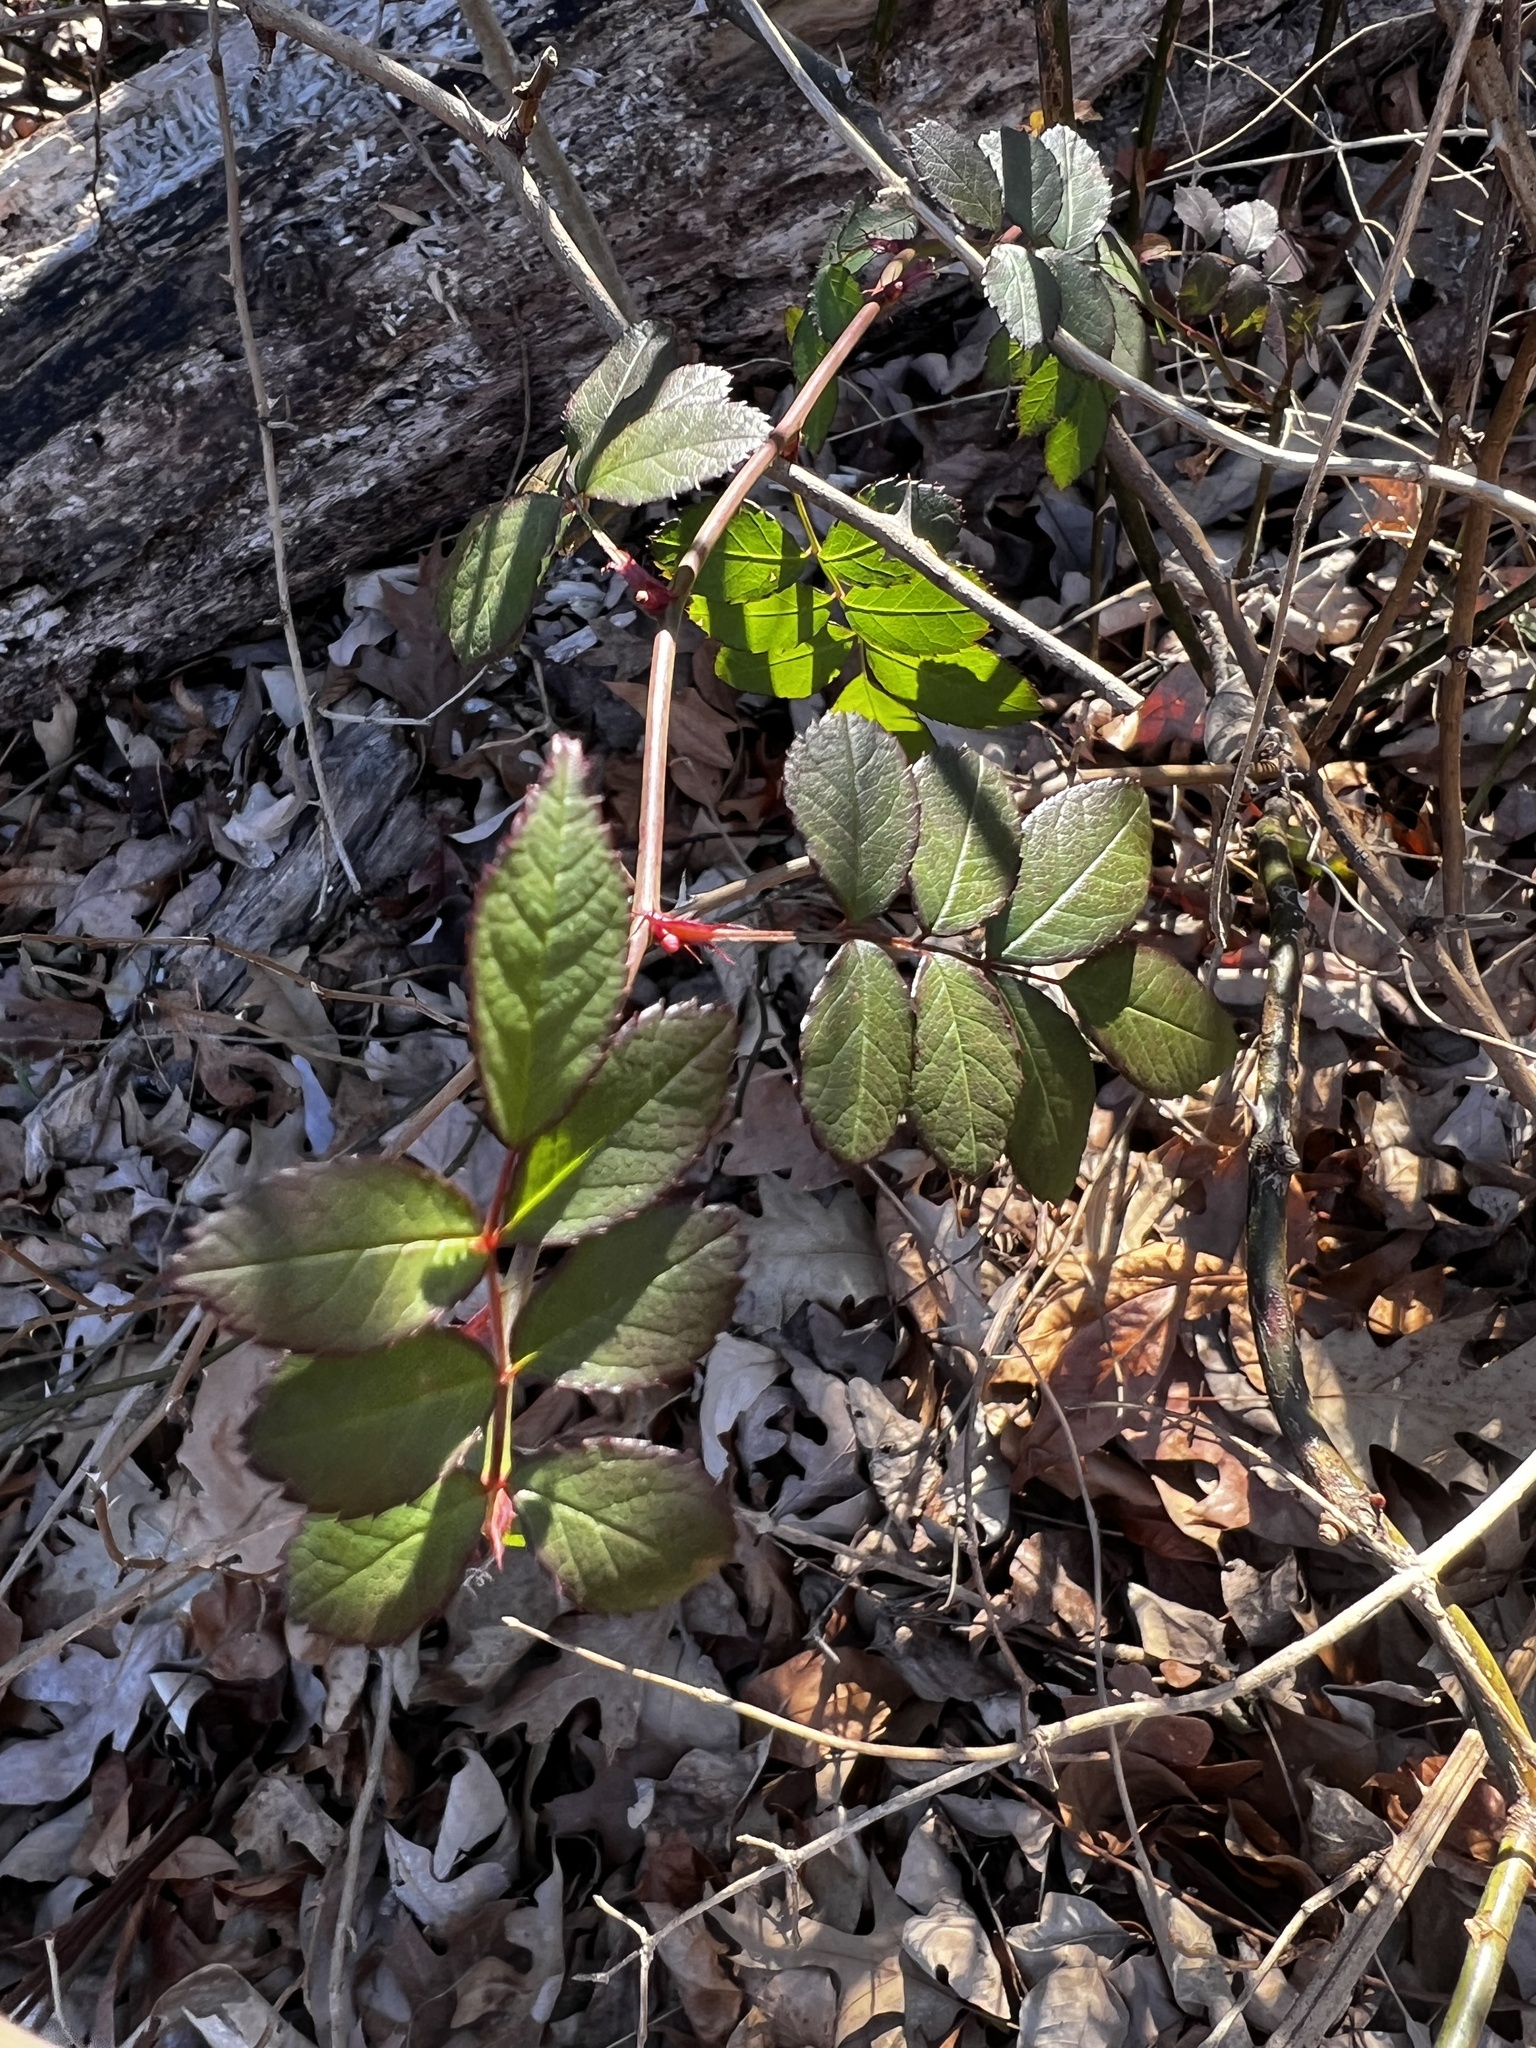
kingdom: Plantae
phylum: Tracheophyta
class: Magnoliopsida
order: Rosales
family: Rosaceae
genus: Rosa
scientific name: Rosa multiflora
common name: Multiflora rose
